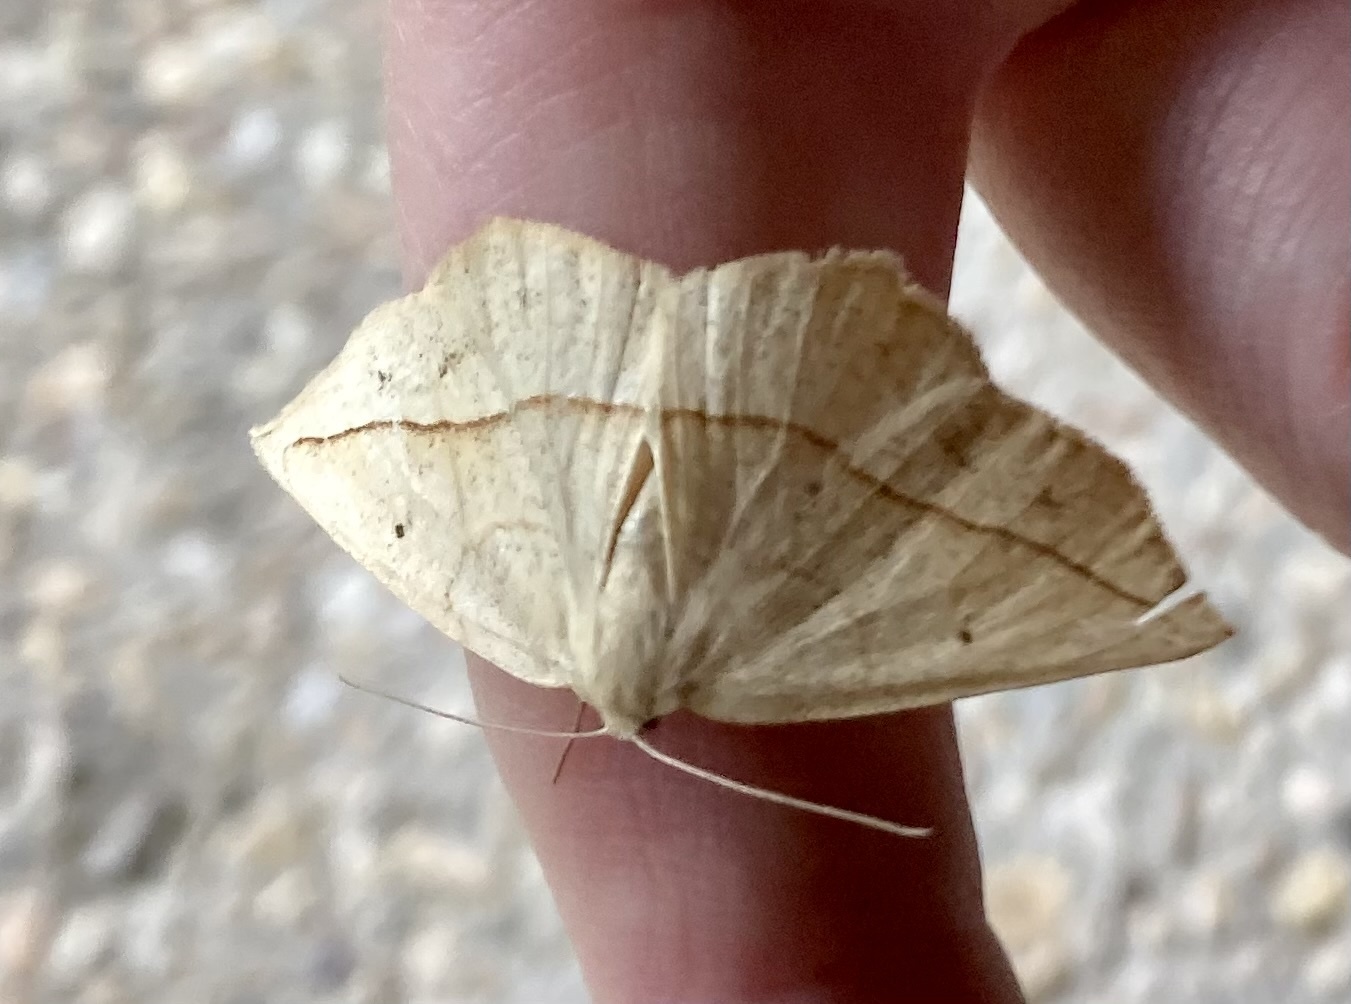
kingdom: Animalia
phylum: Arthropoda
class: Insecta
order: Lepidoptera
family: Geometridae
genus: Eusarca
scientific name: Eusarca confusaria
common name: Confused eusarca
